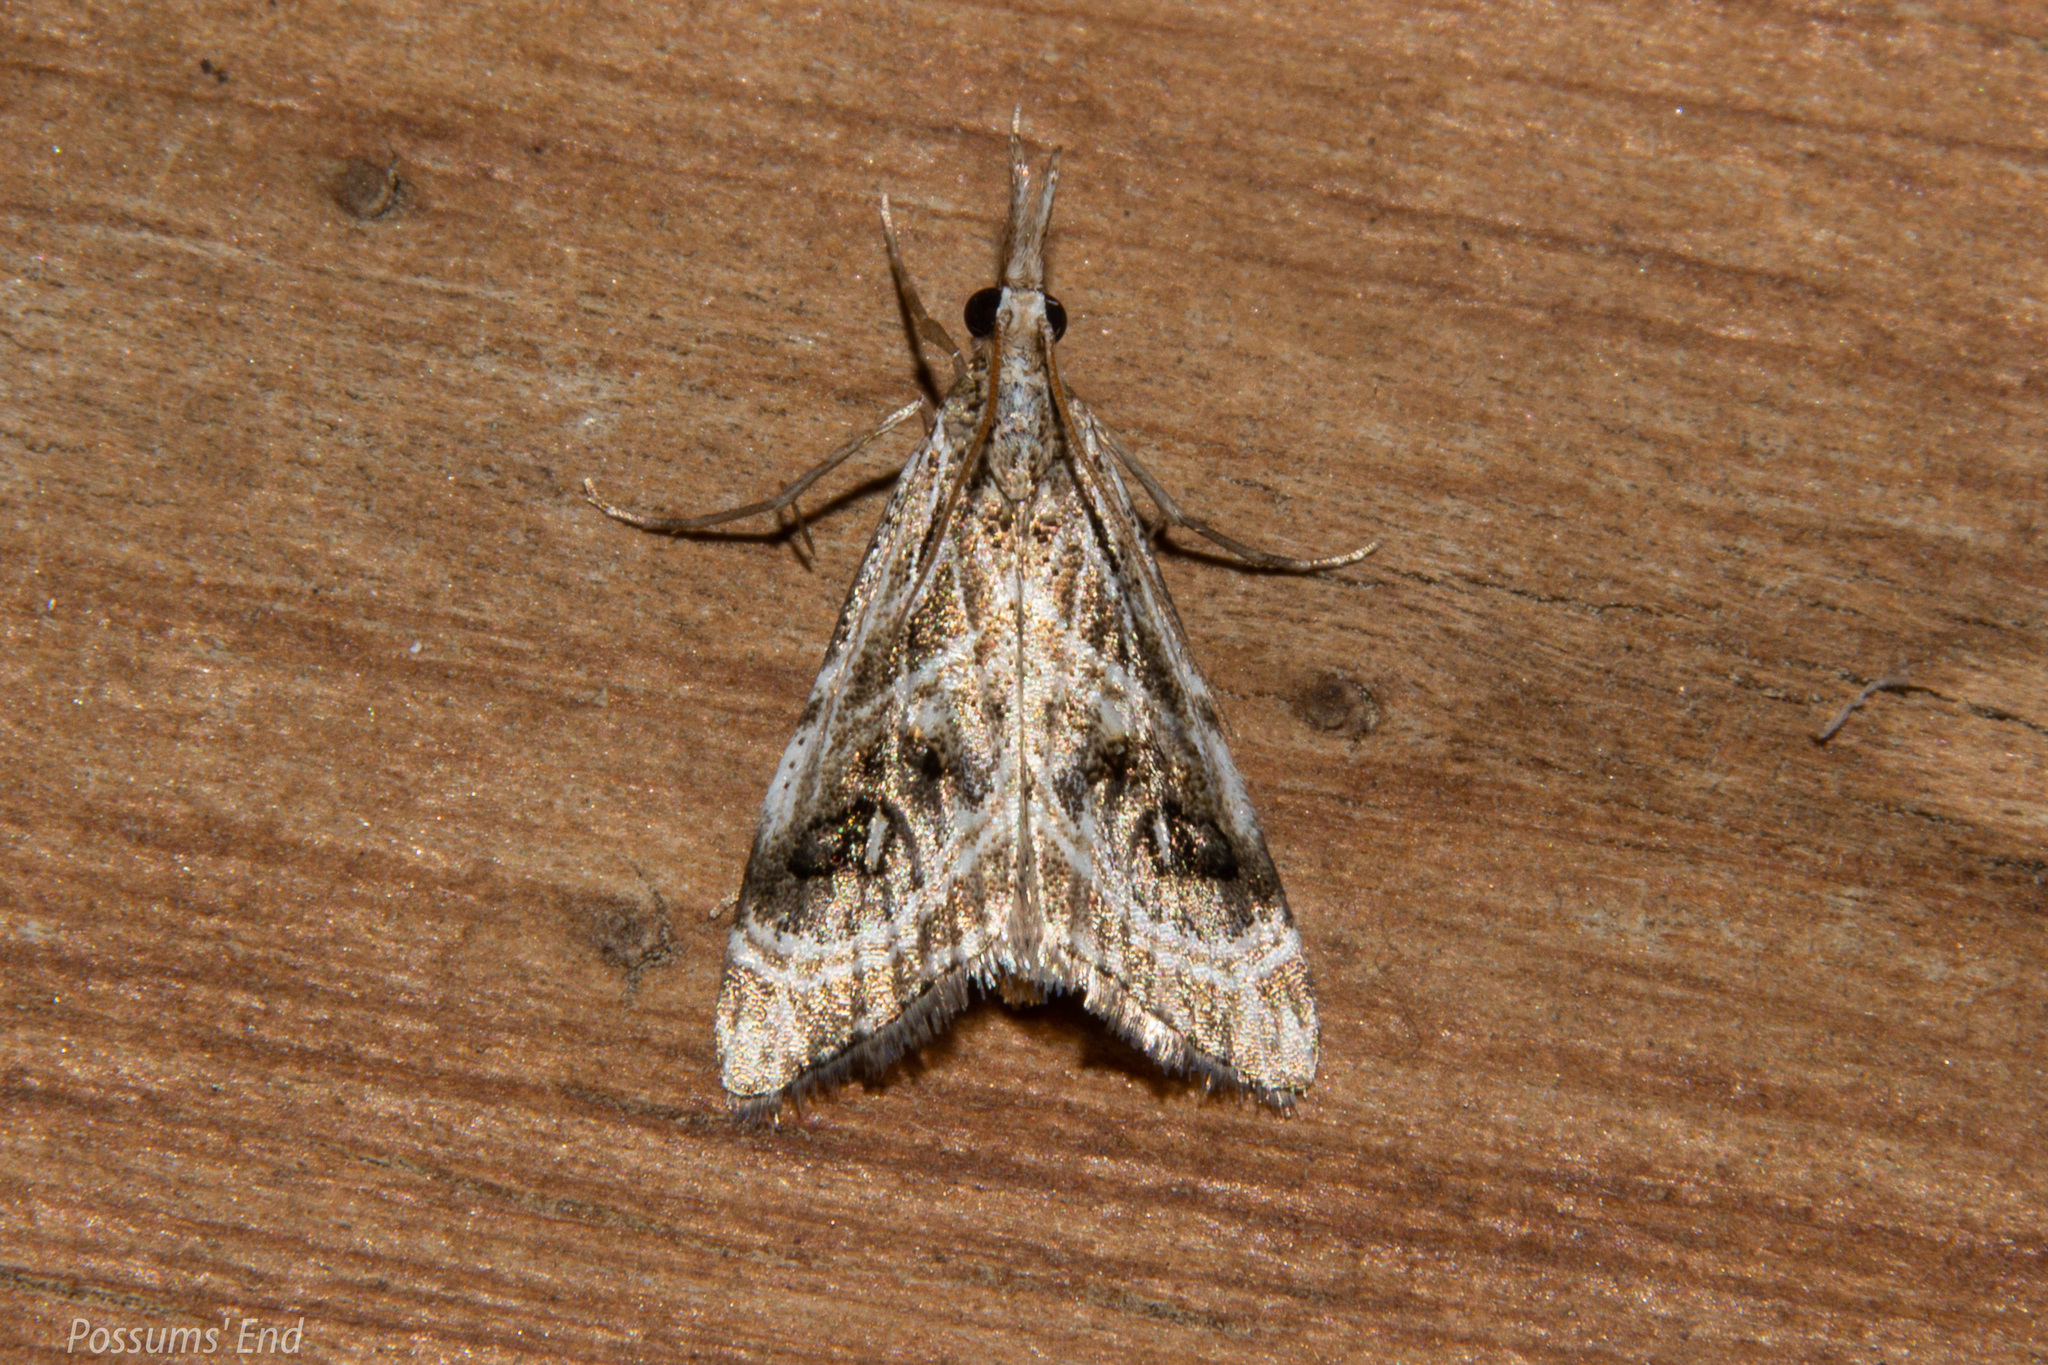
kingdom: Animalia
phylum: Arthropoda
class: Insecta
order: Lepidoptera
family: Crambidae
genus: Gadira
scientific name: Gadira acerella
